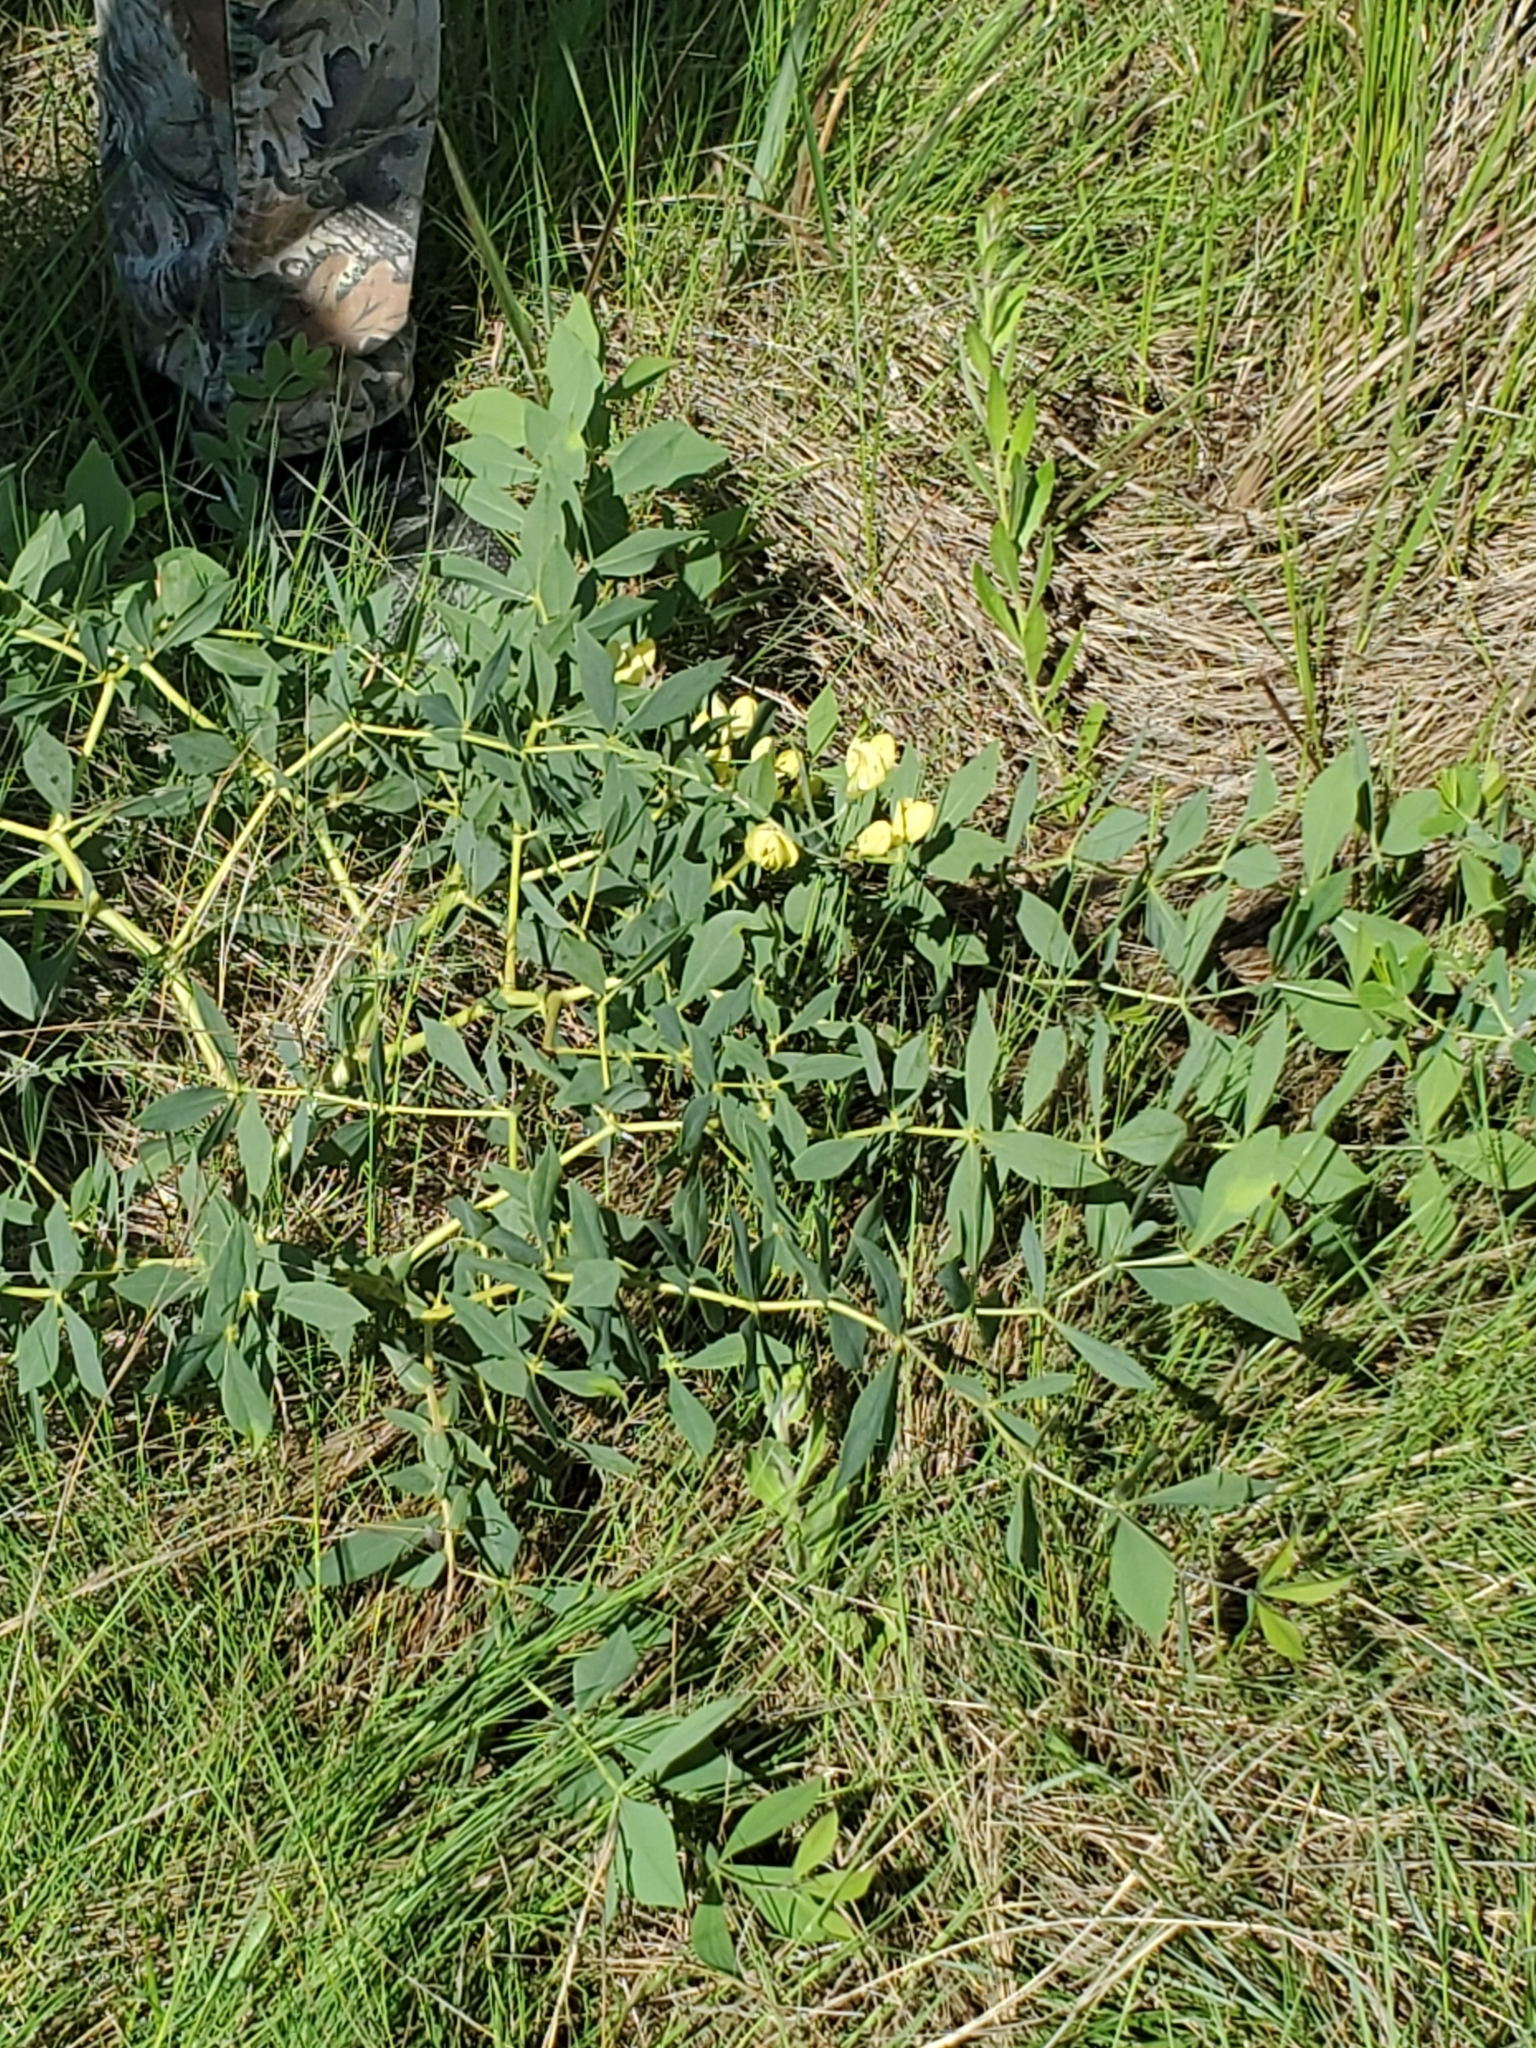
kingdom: Plantae
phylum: Tracheophyta
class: Magnoliopsida
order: Fabales
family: Fabaceae
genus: Baptisia
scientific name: Baptisia bracteata
